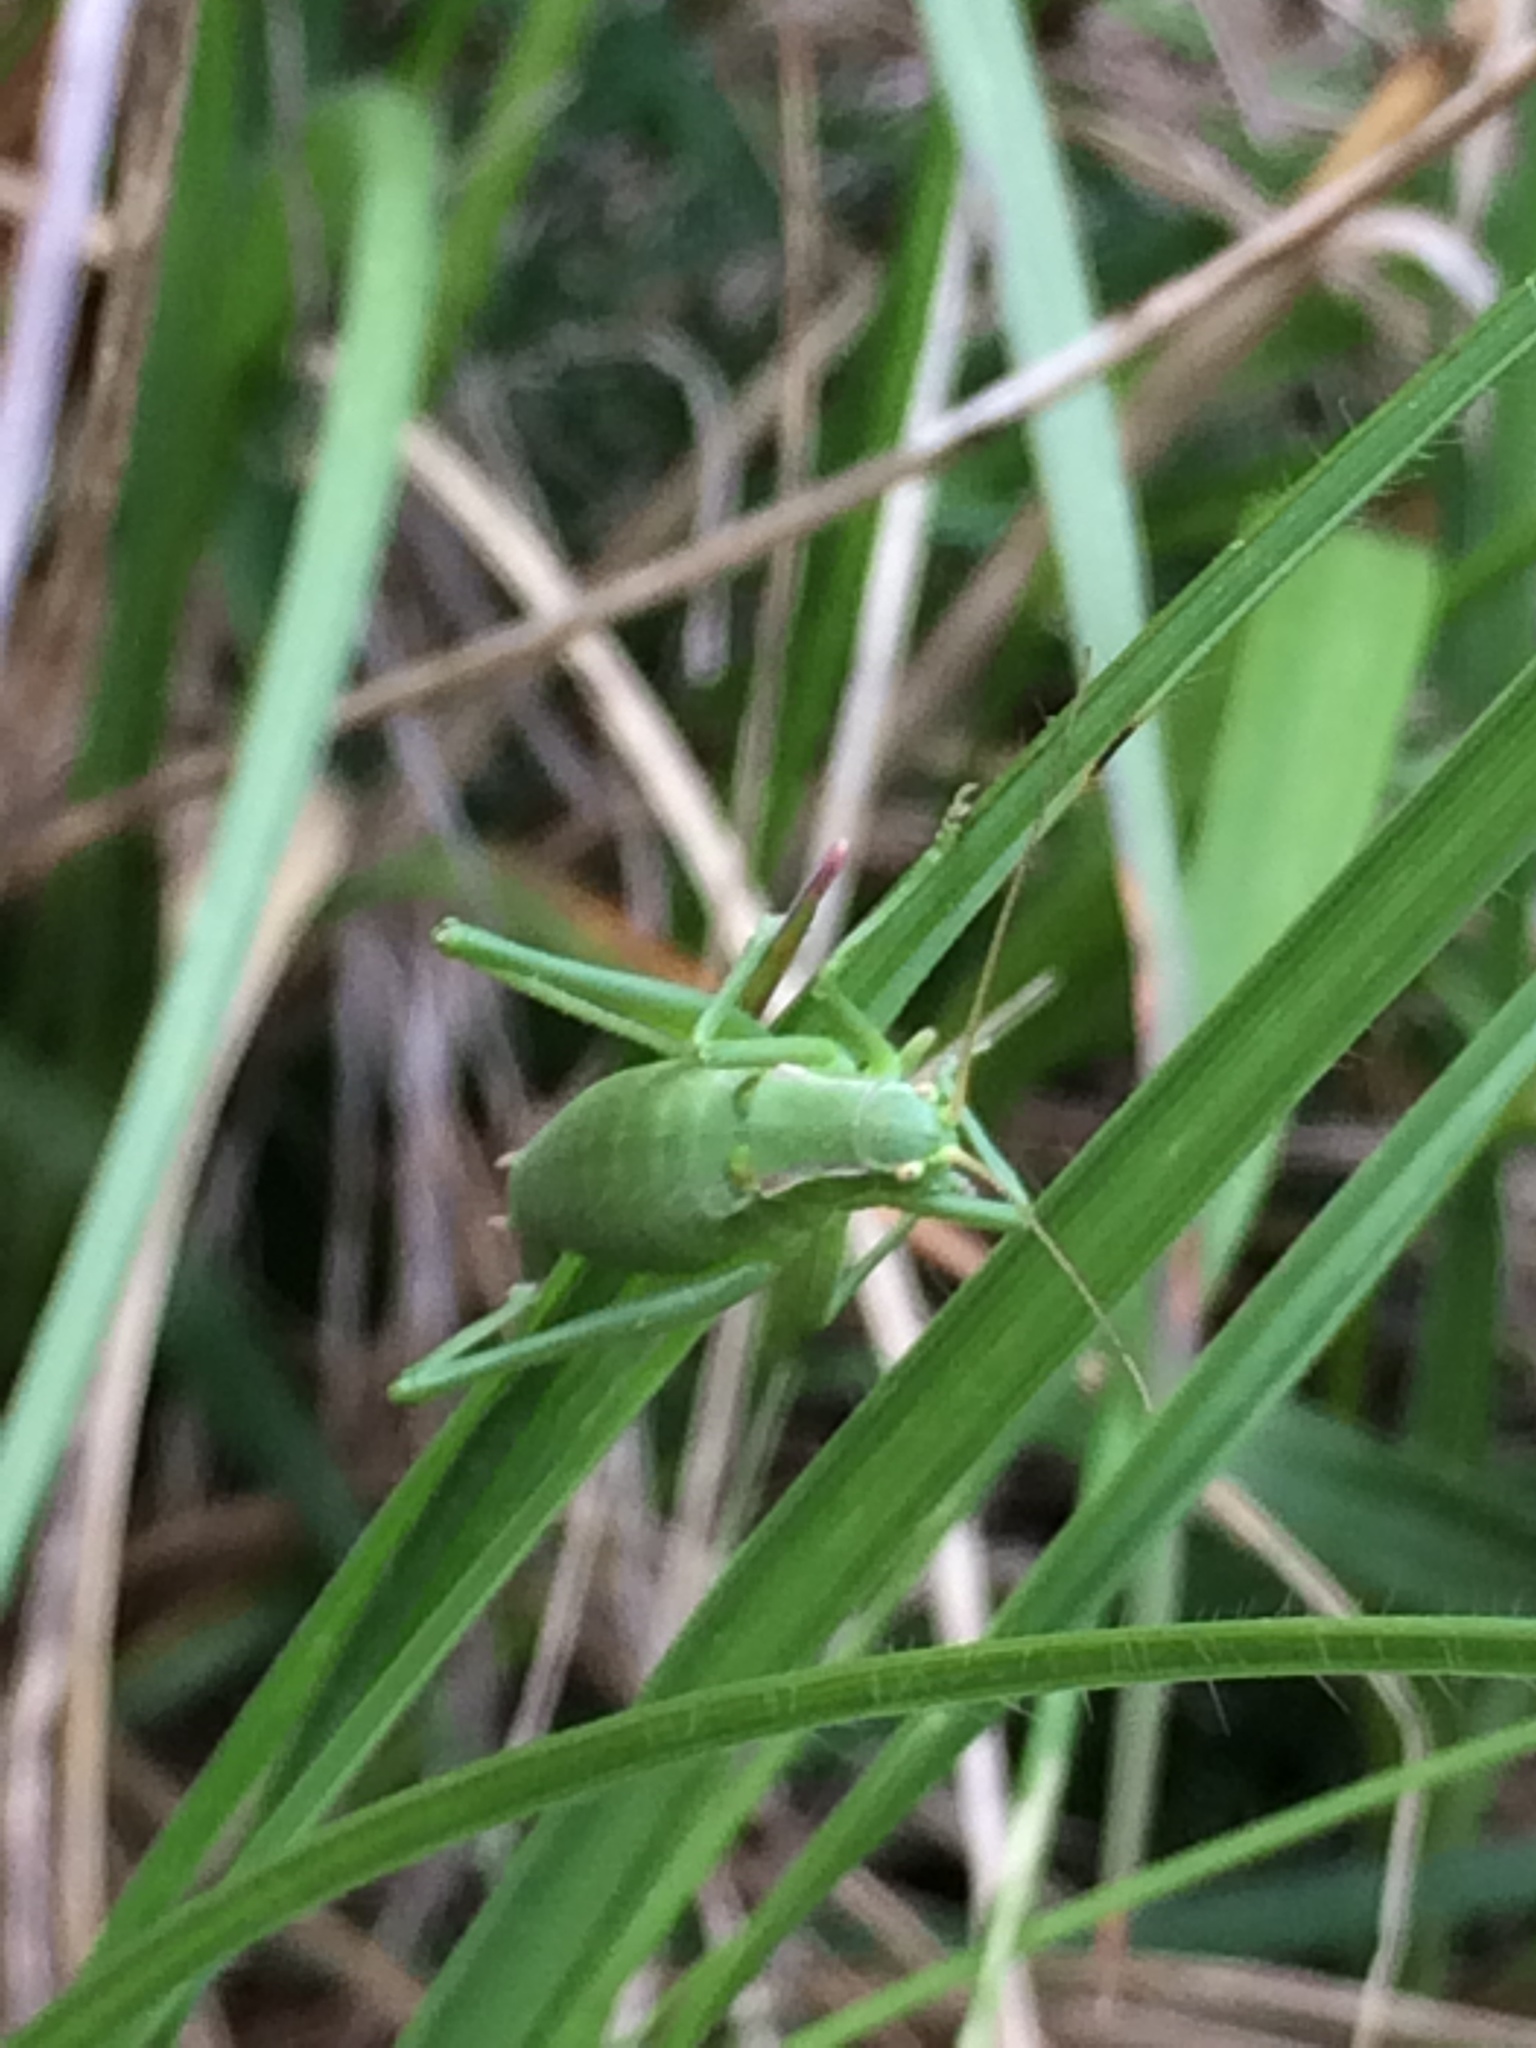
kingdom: Animalia
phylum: Arthropoda
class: Insecta
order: Orthoptera
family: Tettigoniidae
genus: Isophya
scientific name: Isophya pyrenaea
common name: Pyrenean plump bush-cricket
